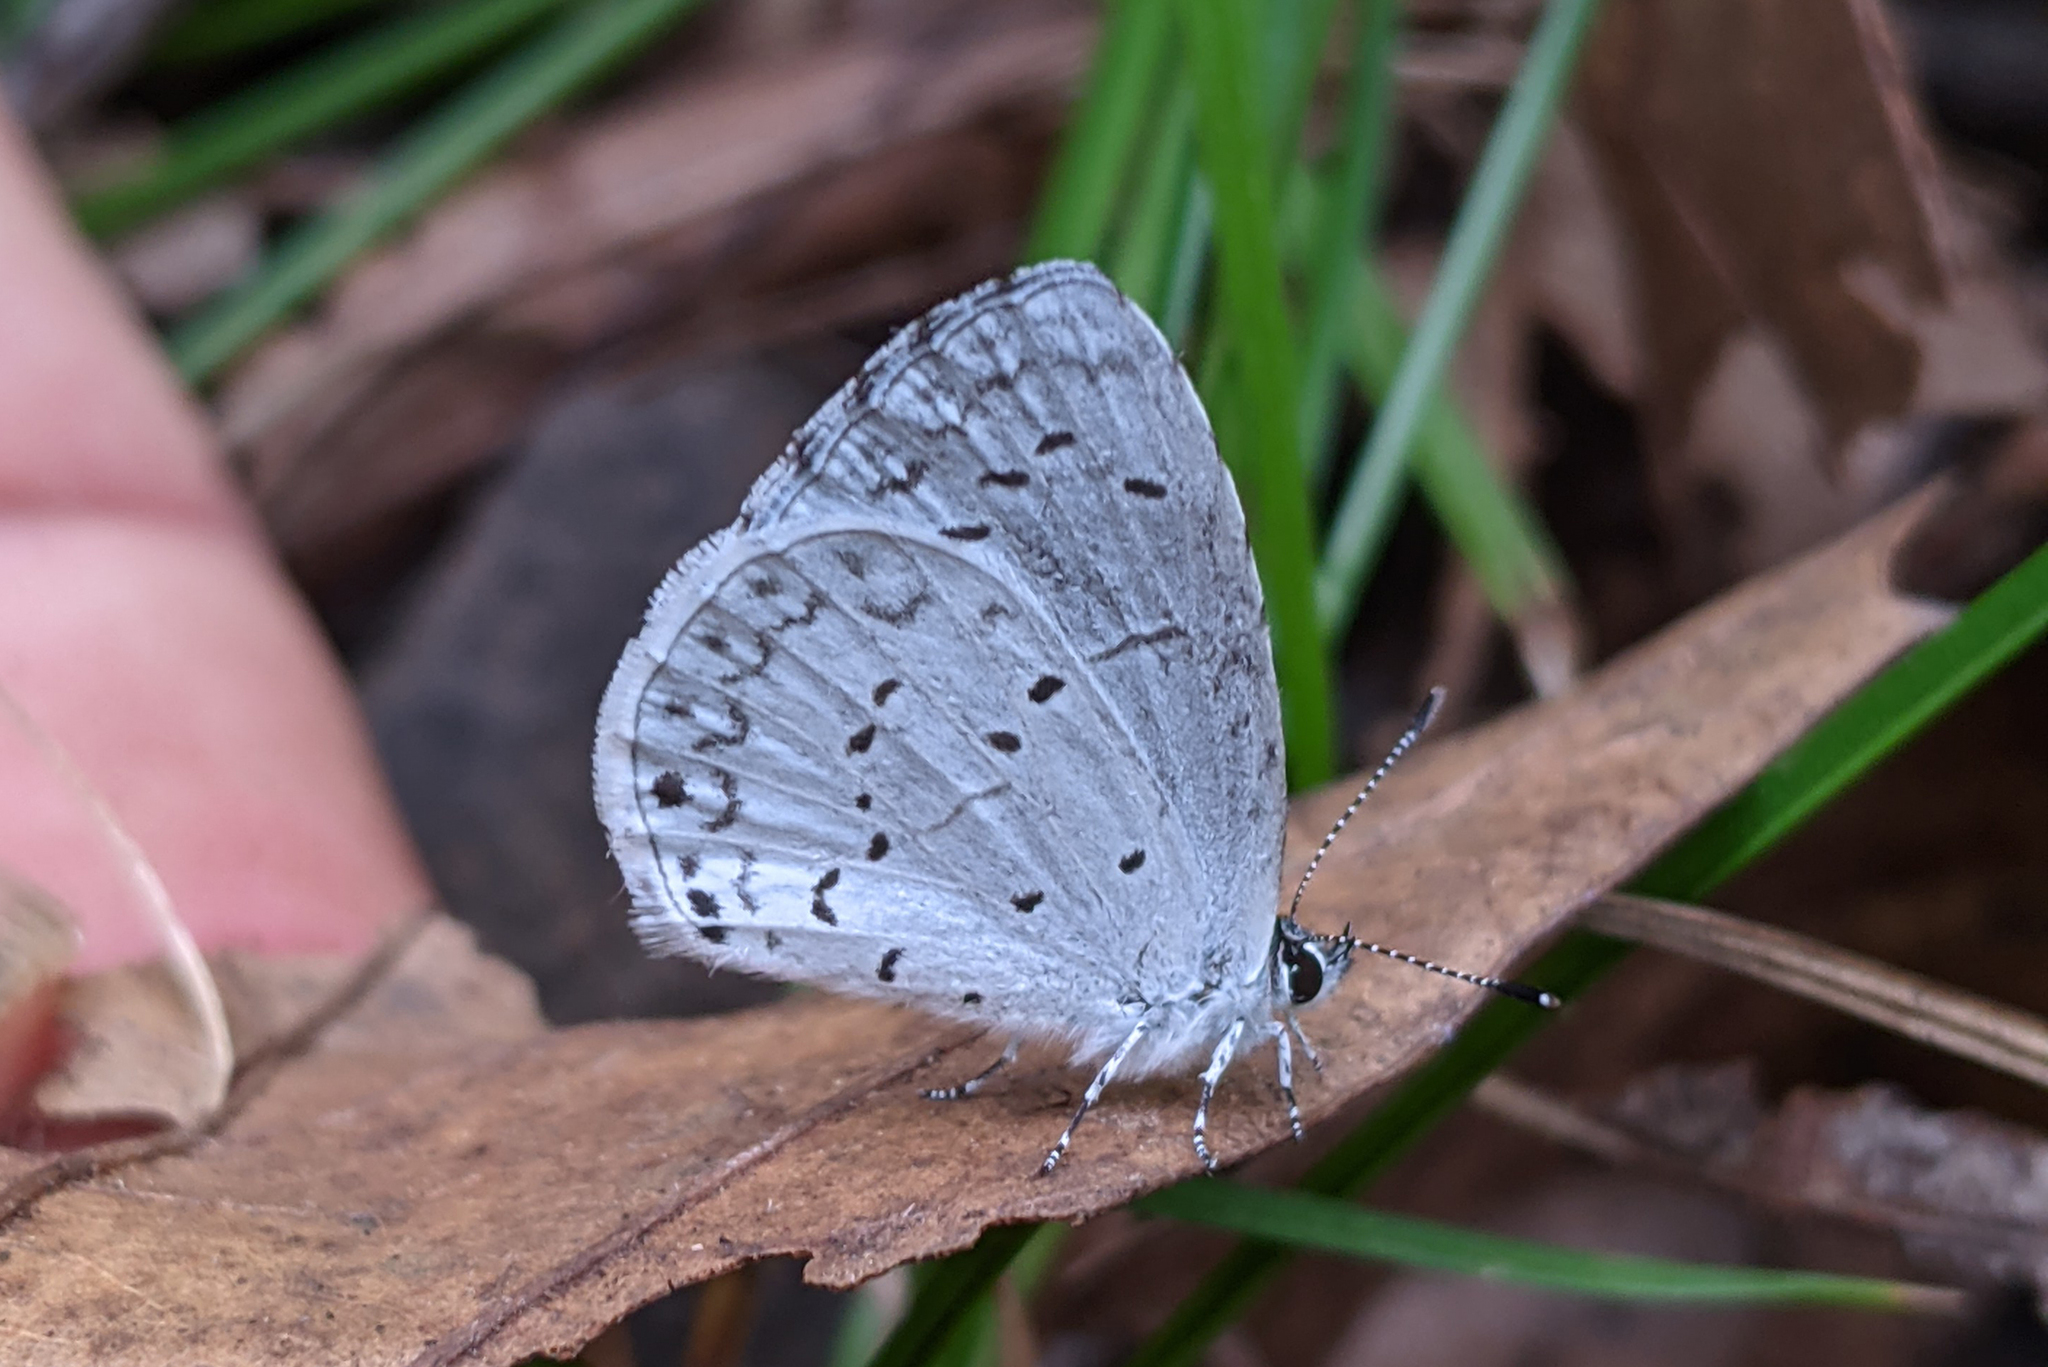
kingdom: Animalia
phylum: Arthropoda
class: Insecta
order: Lepidoptera
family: Lycaenidae
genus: Cyaniris
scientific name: Cyaniris neglecta
